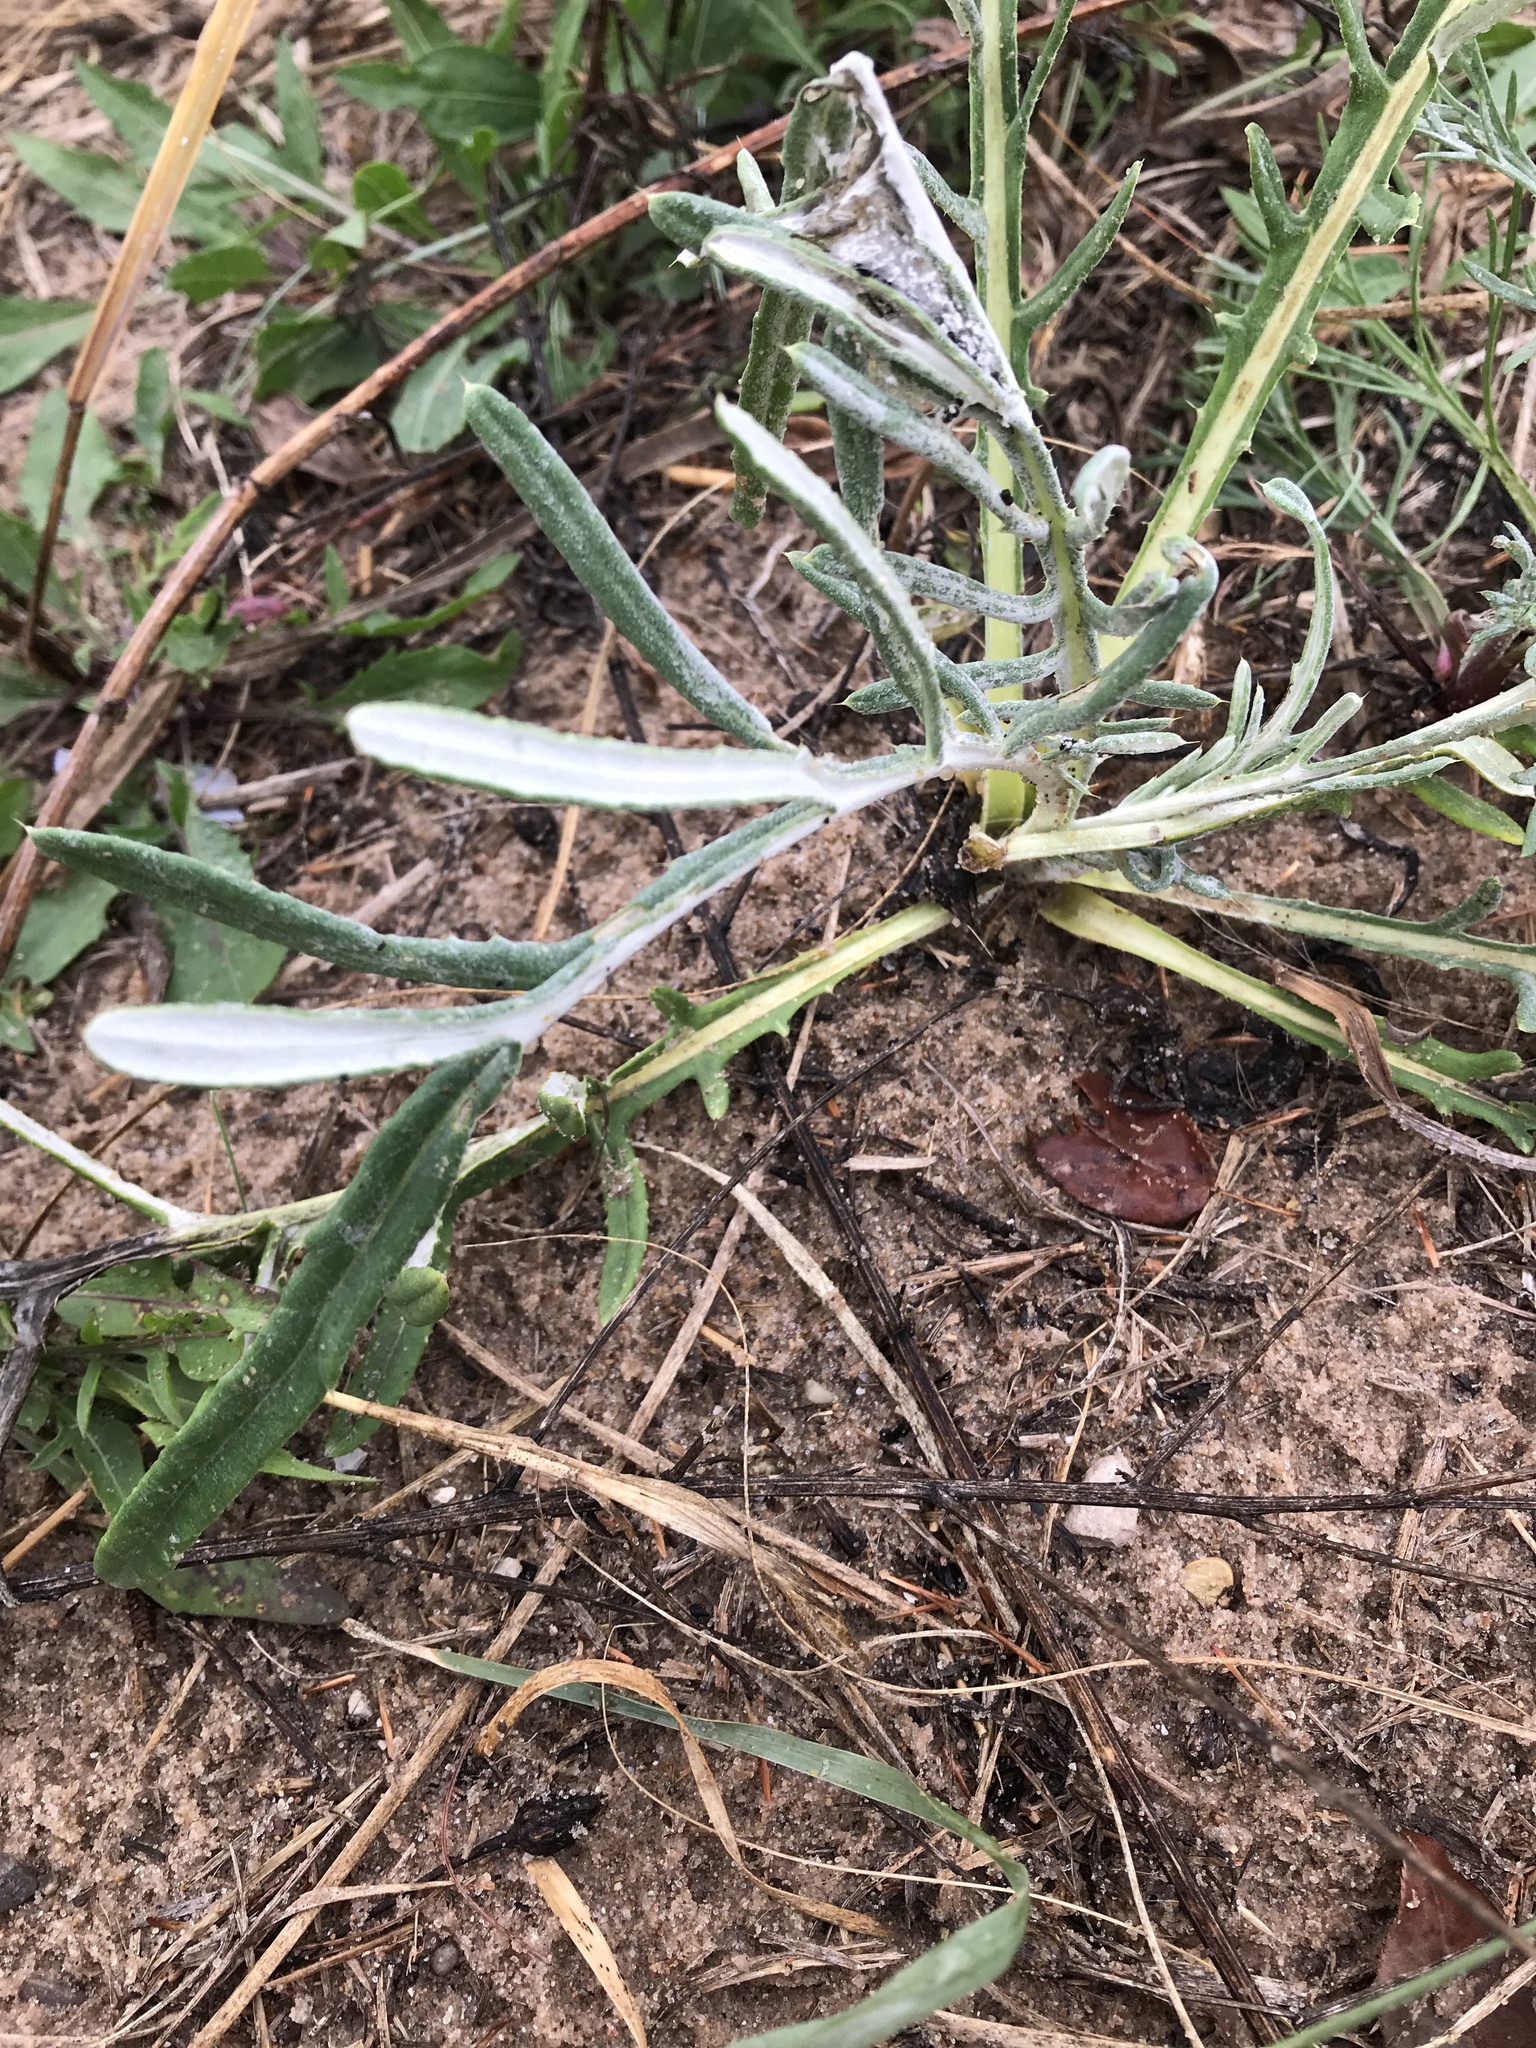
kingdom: Plantae
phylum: Tracheophyta
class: Magnoliopsida
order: Asterales
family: Asteraceae
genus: Cirsium
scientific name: Cirsium pitcheri
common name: Dune thistle
